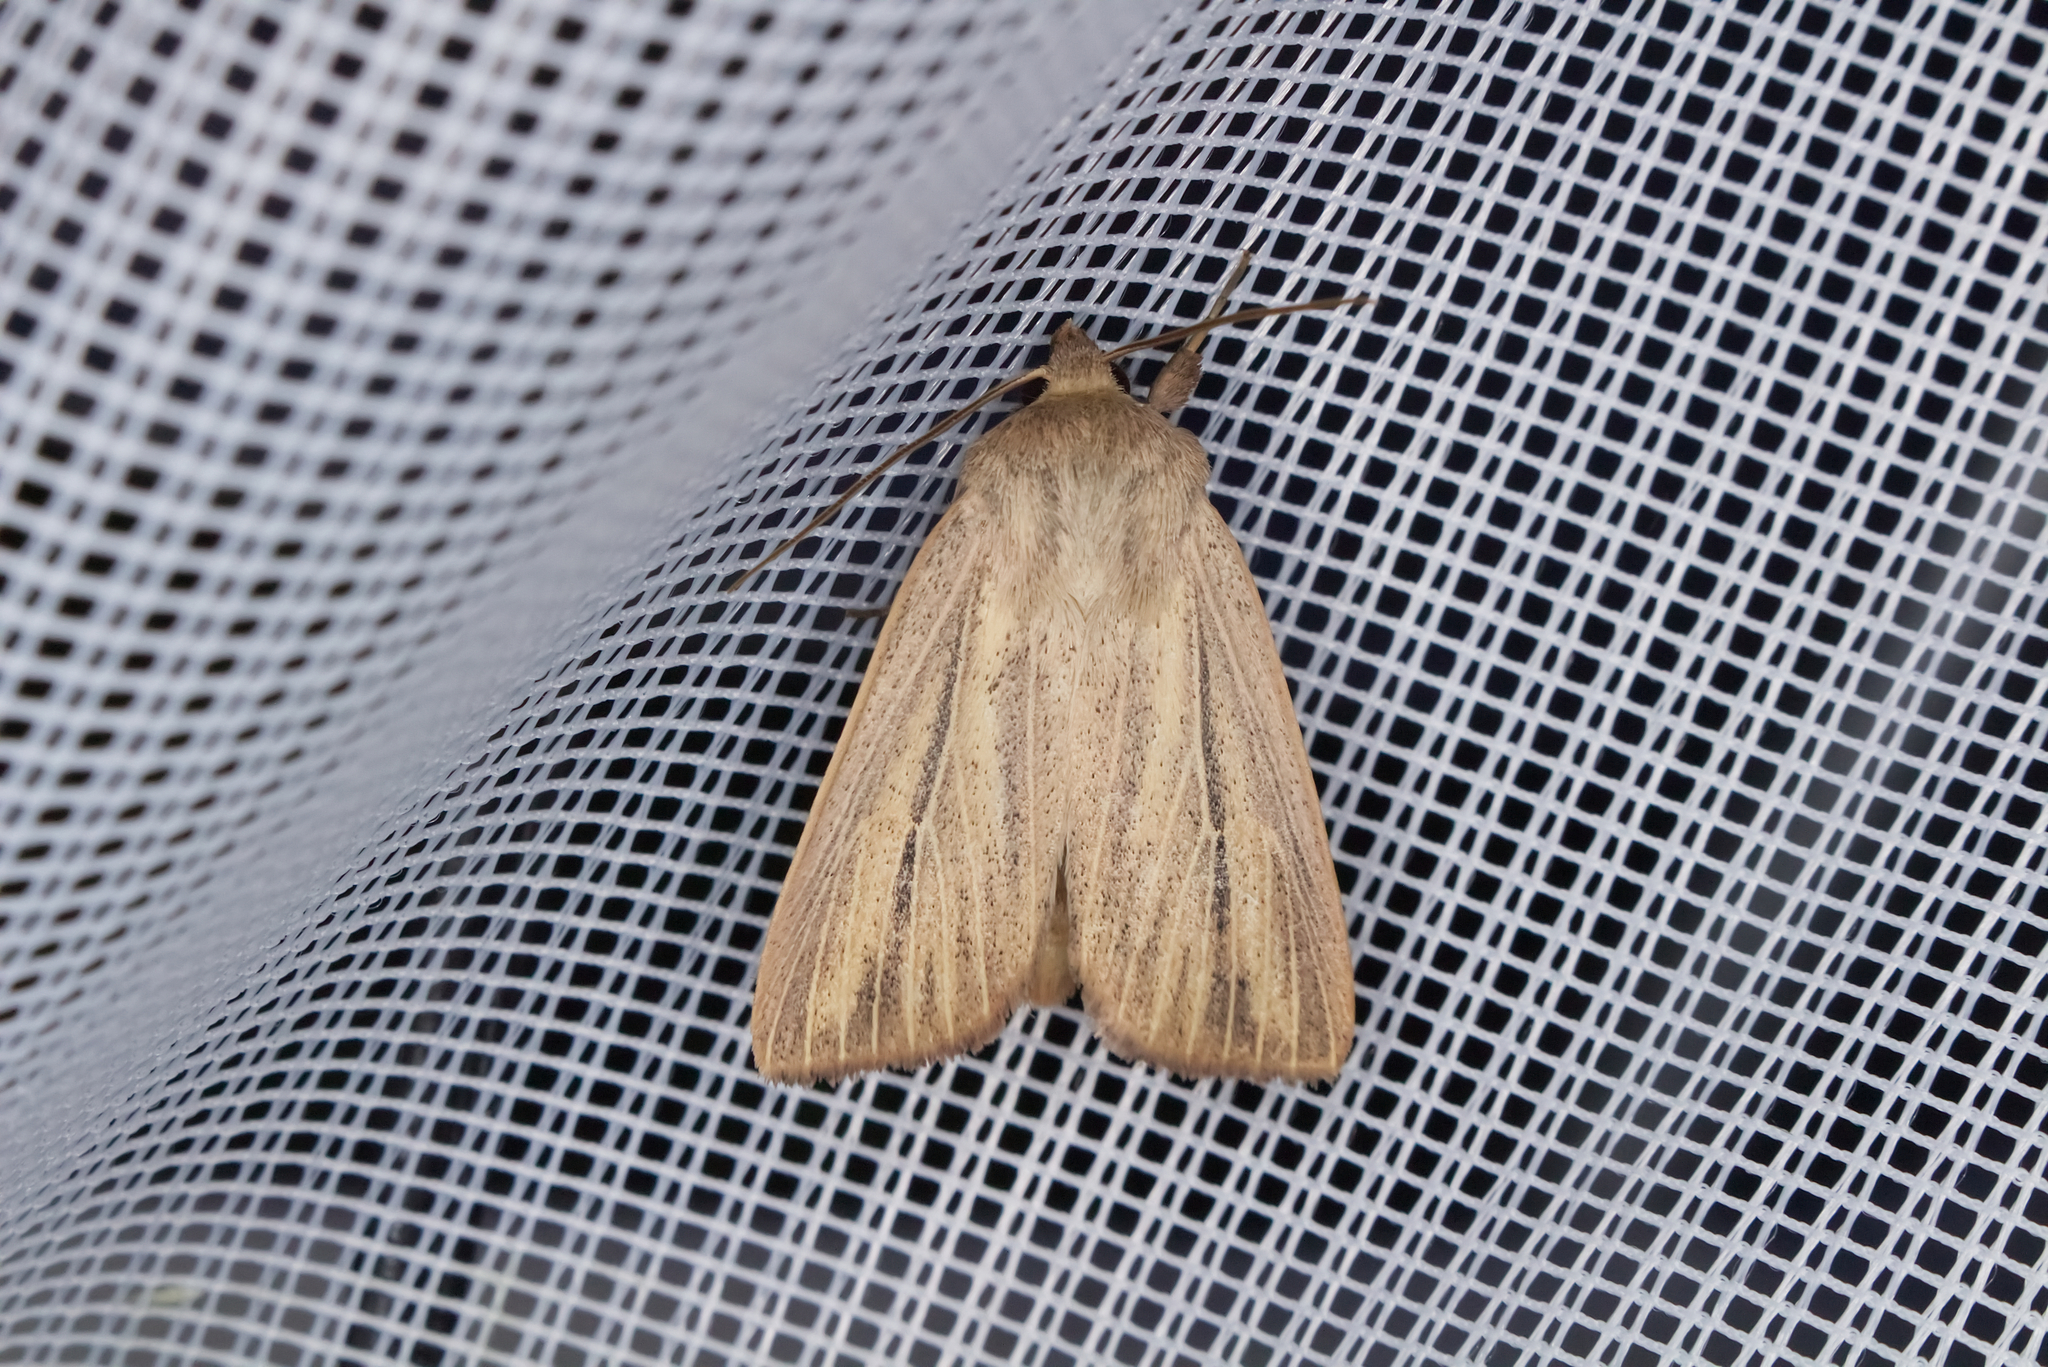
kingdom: Animalia
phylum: Arthropoda
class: Insecta
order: Lepidoptera
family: Noctuidae
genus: Mythimna
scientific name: Mythimna pudorina
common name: Striped wainscot
